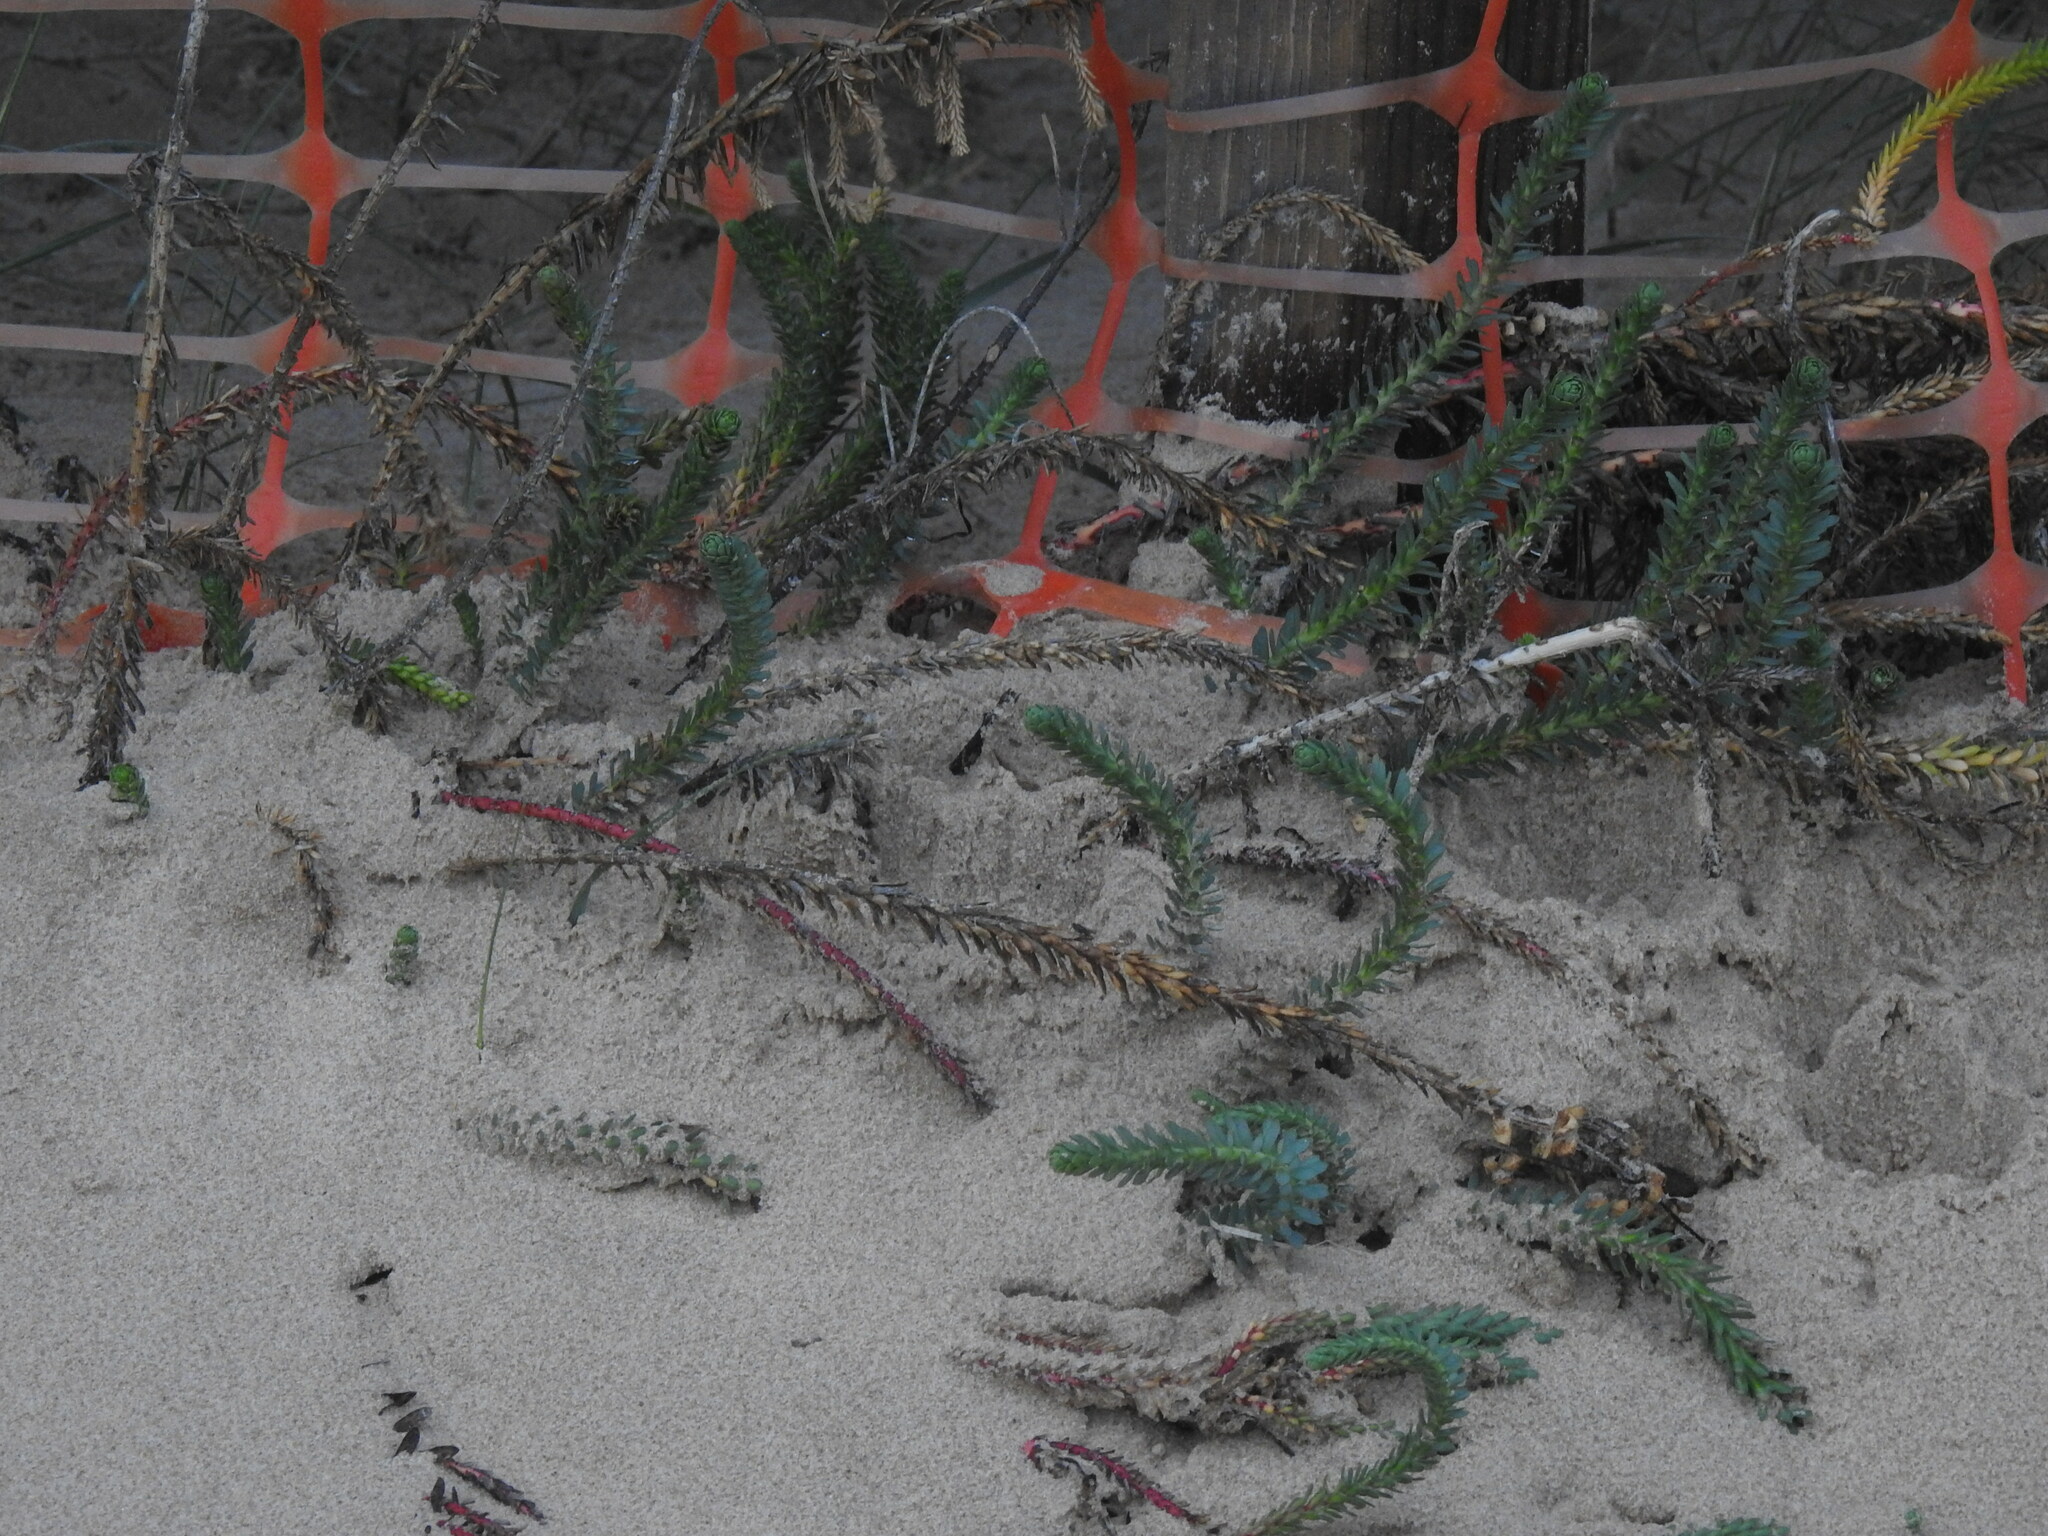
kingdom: Plantae
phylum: Tracheophyta
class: Magnoliopsida
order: Malpighiales
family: Euphorbiaceae
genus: Euphorbia
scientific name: Euphorbia paralias
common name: Sea spurge
